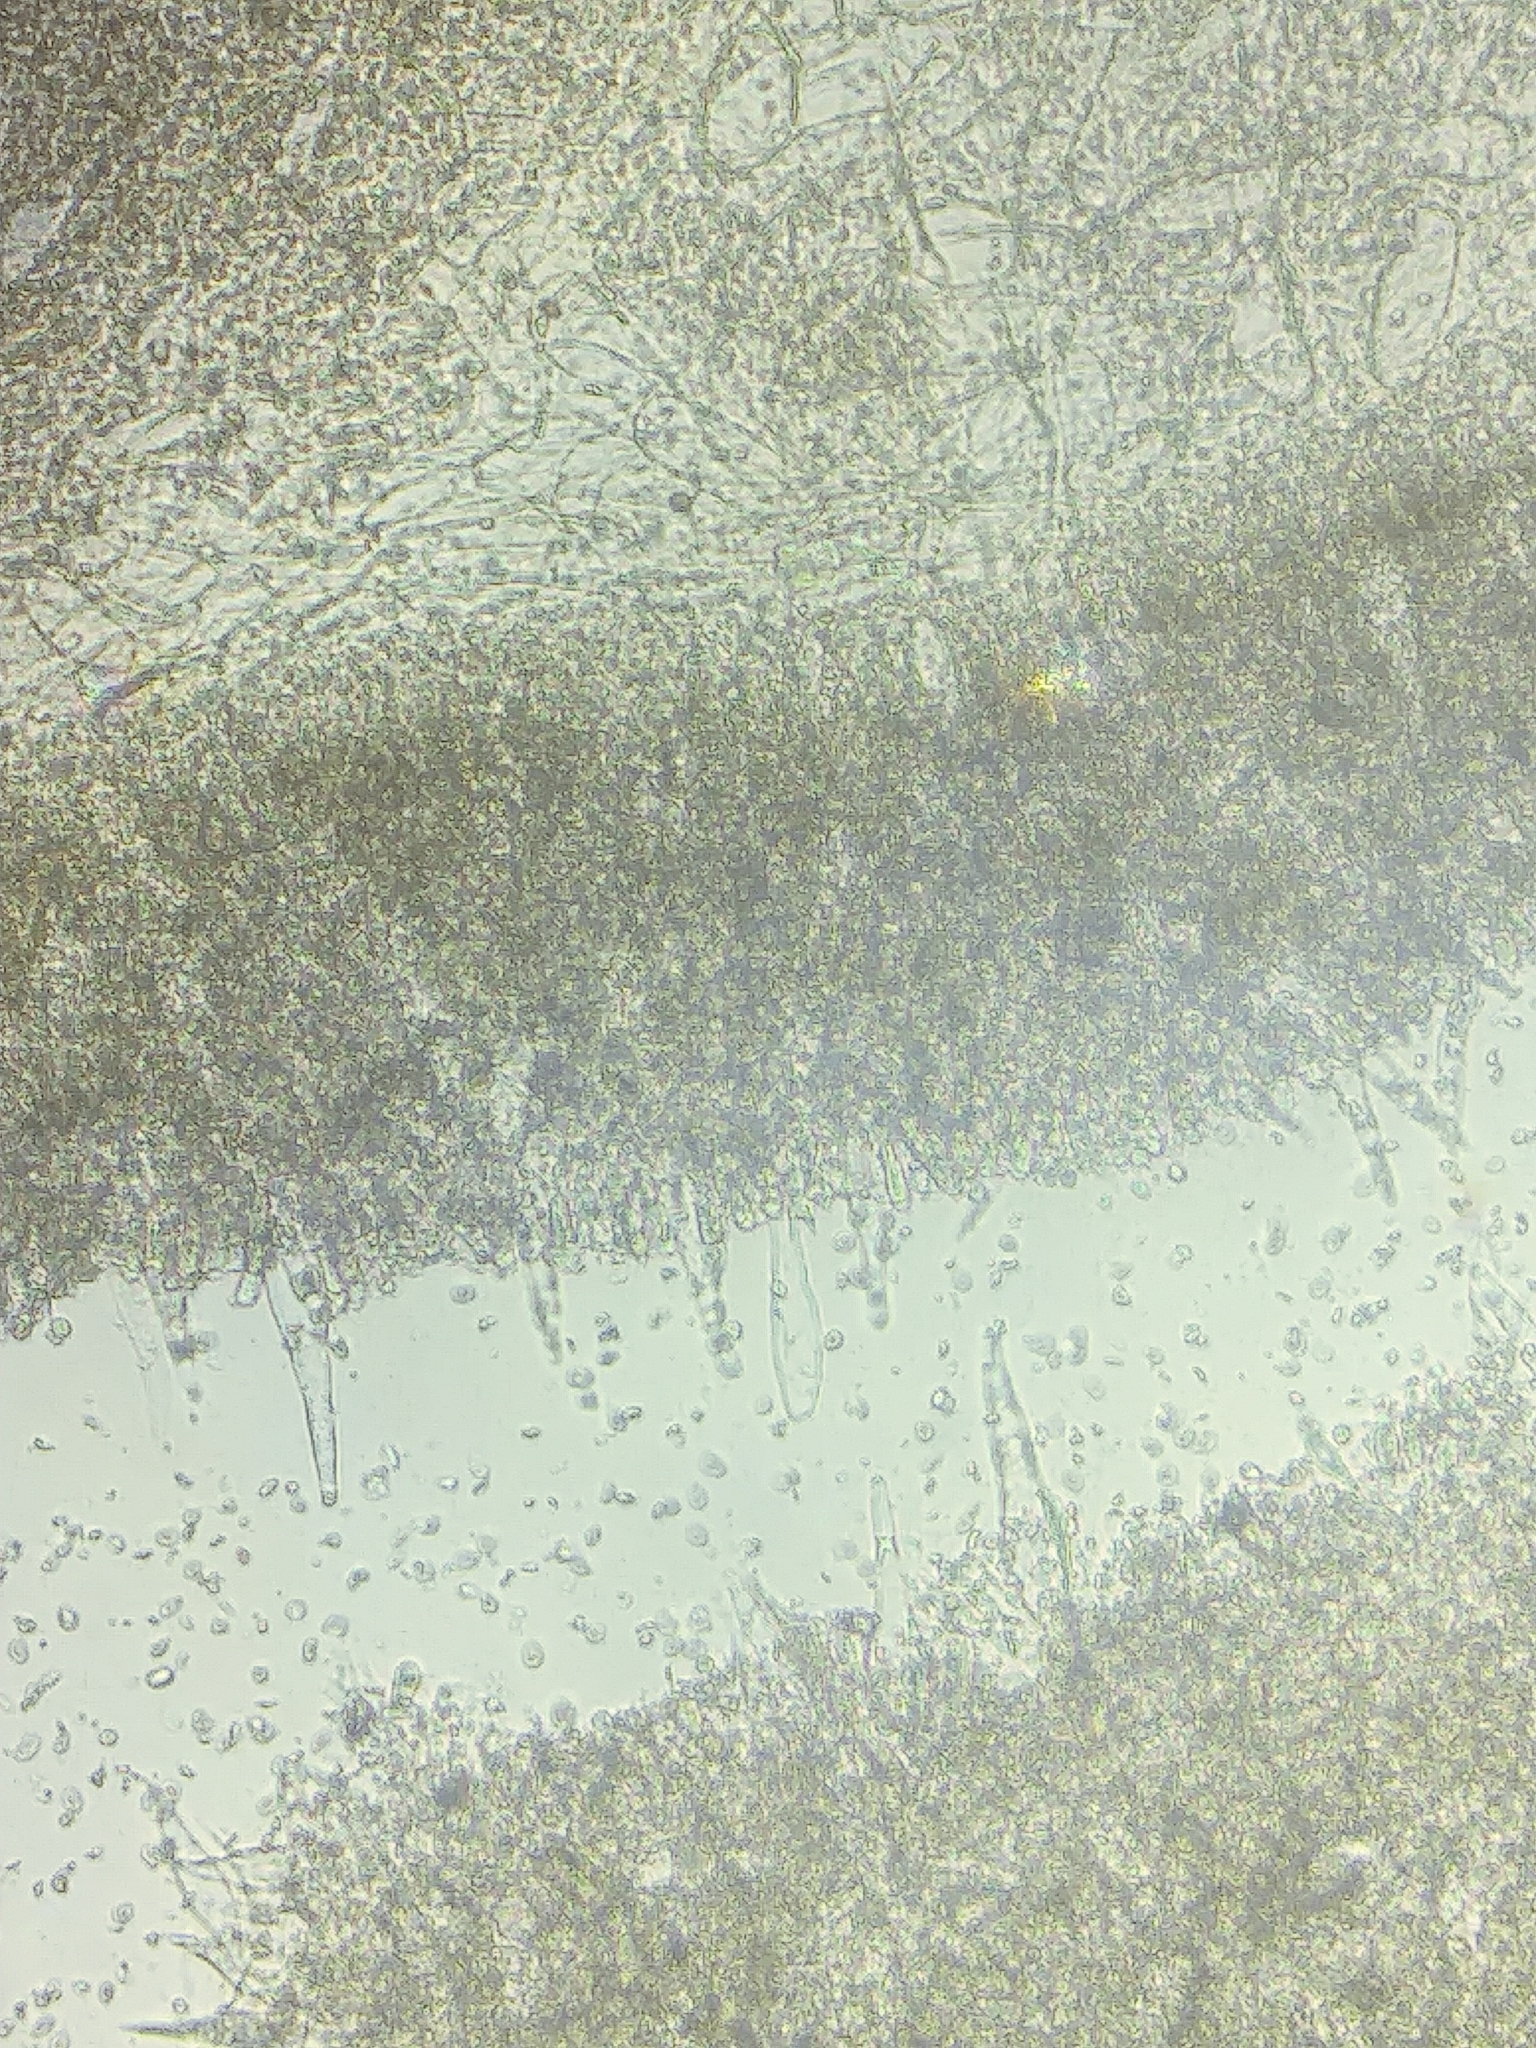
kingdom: Fungi
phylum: Basidiomycota
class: Agaricomycetes
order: Agaricales
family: Mycenaceae
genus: Mycena
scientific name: Mycena niveipes
